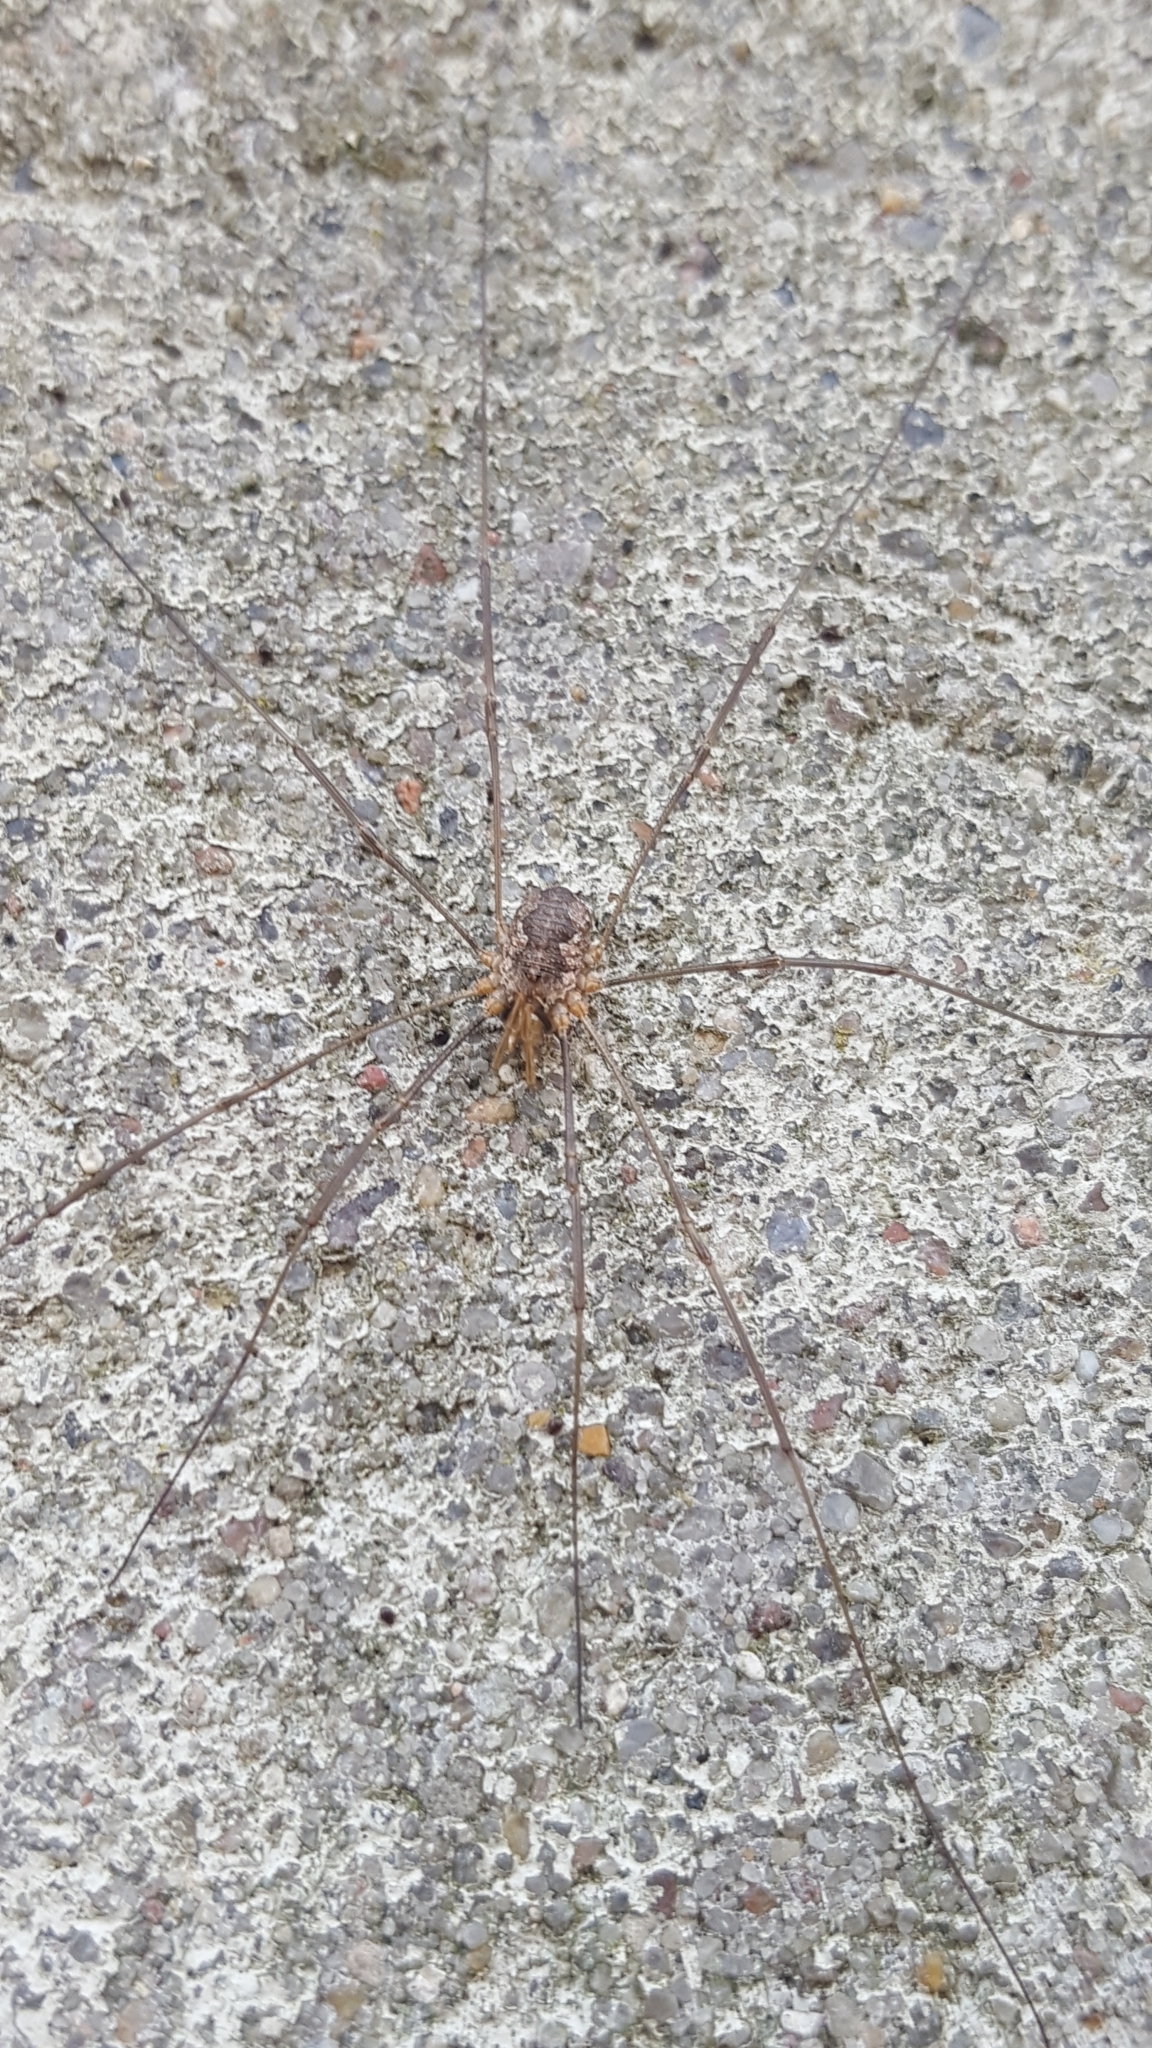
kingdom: Animalia
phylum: Arthropoda
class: Arachnida
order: Opiliones
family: Phalangiidae
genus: Phalangium
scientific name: Phalangium opilio
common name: Daddy longleg
